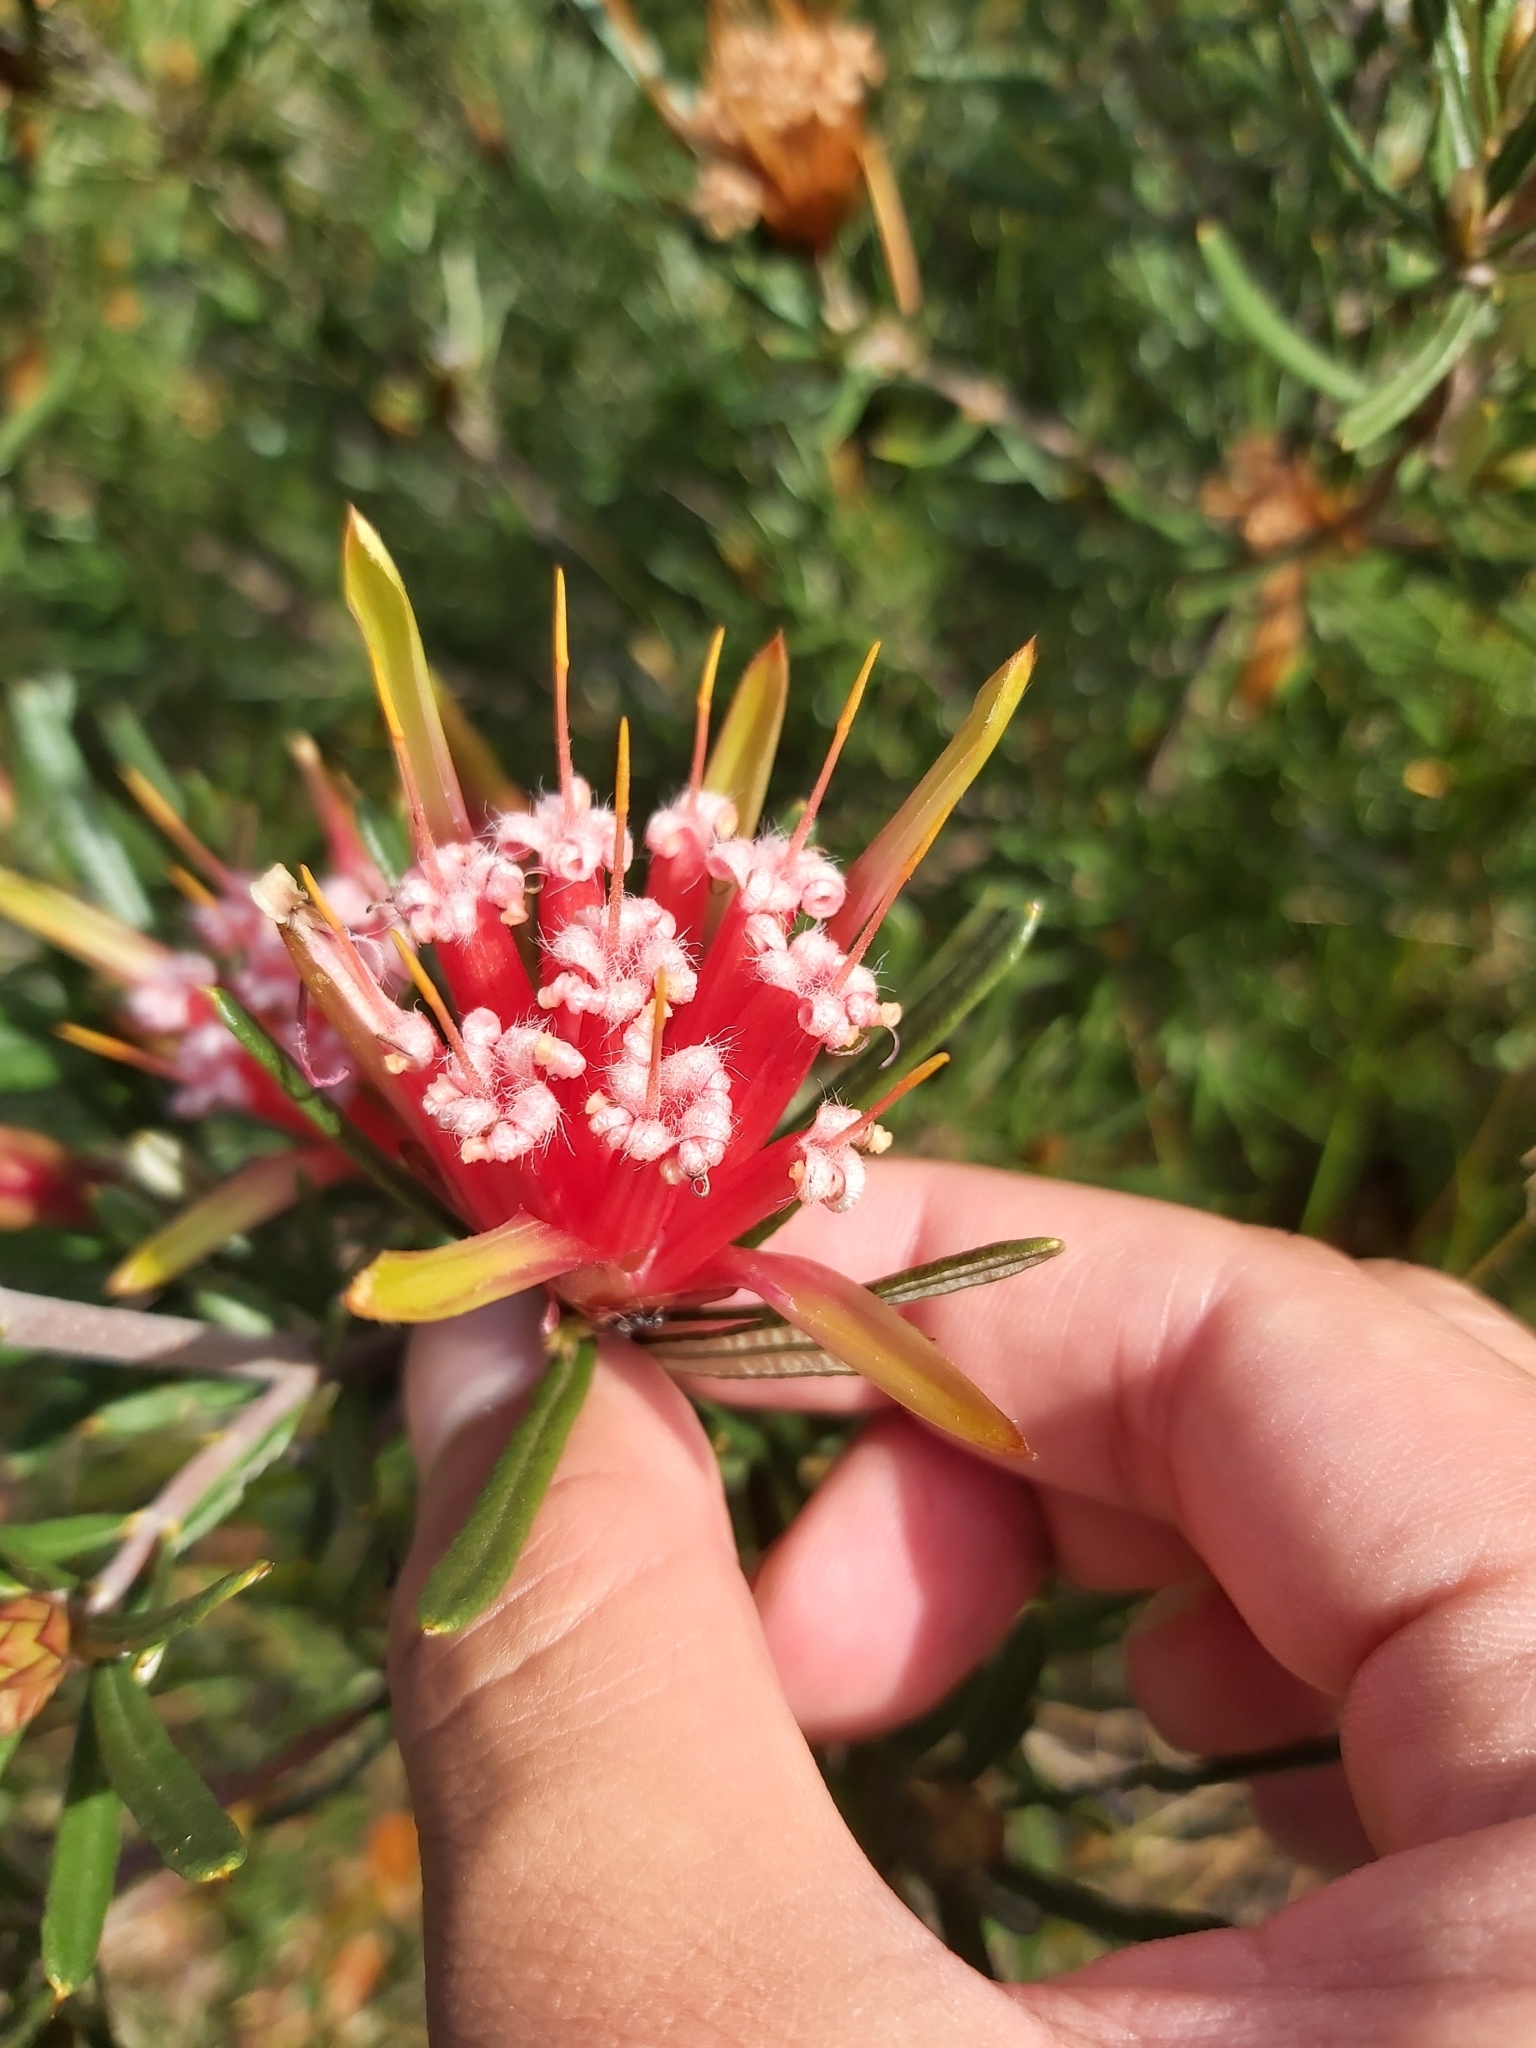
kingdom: Plantae
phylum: Tracheophyta
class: Magnoliopsida
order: Proteales
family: Proteaceae
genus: Lambertia
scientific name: Lambertia formosa
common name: Mountain-devil
